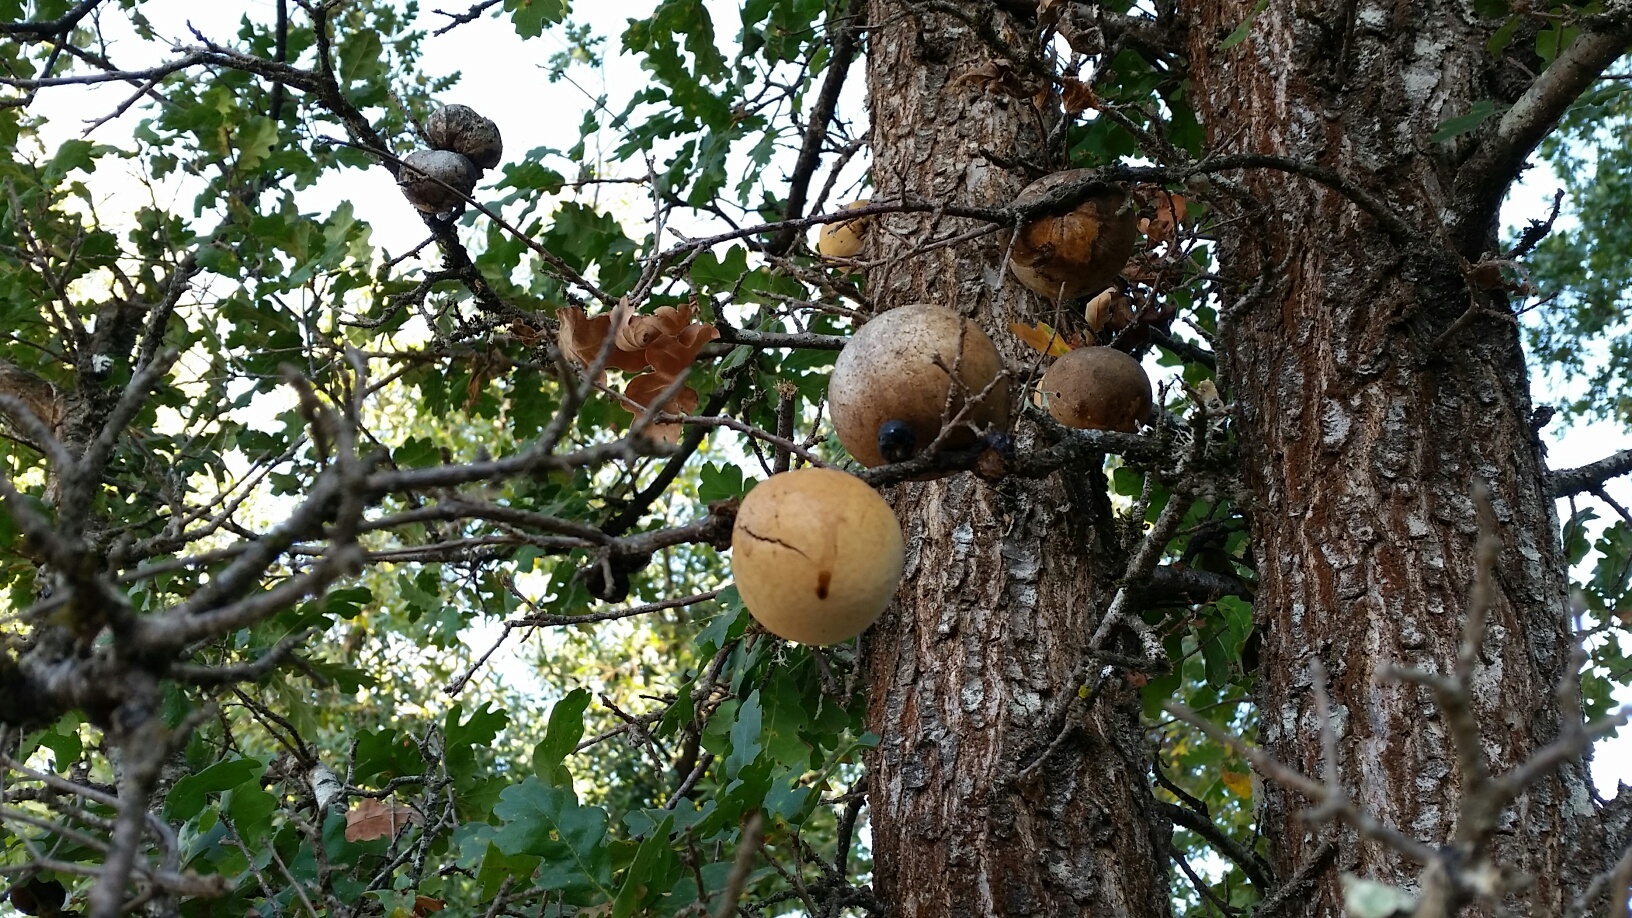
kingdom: Animalia
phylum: Arthropoda
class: Insecta
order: Hymenoptera
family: Cynipidae
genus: Andricus
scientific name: Andricus quercuscalifornicus
